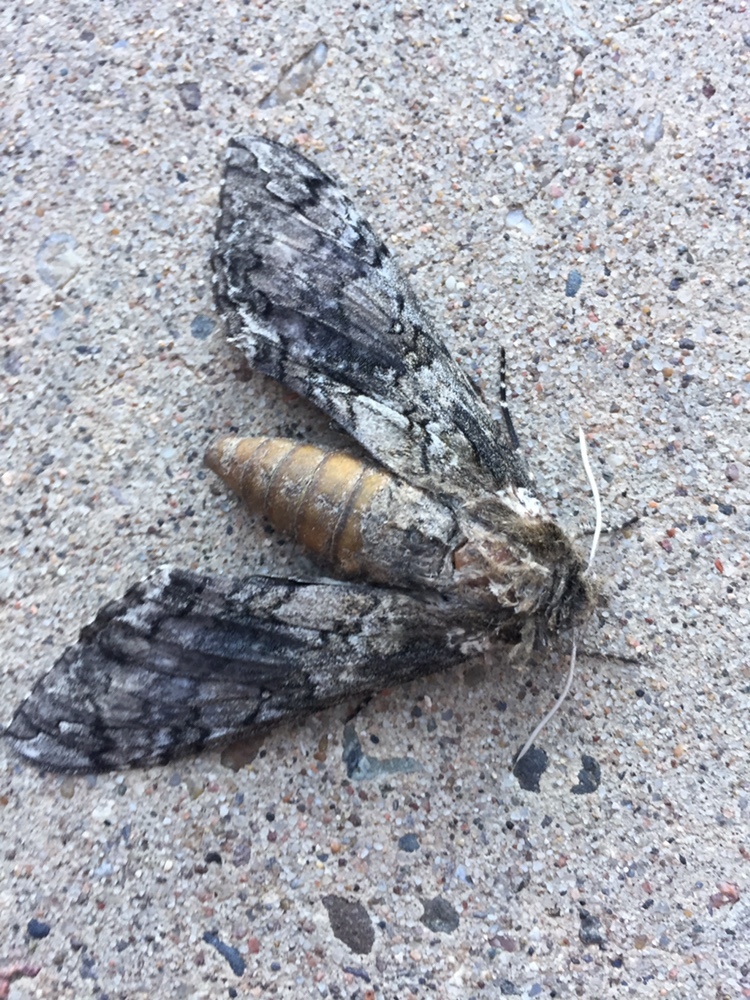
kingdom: Animalia
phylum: Arthropoda
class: Insecta
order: Lepidoptera
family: Sphingidae
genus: Manduca
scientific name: Manduca sexta
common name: Carolina sphinx
